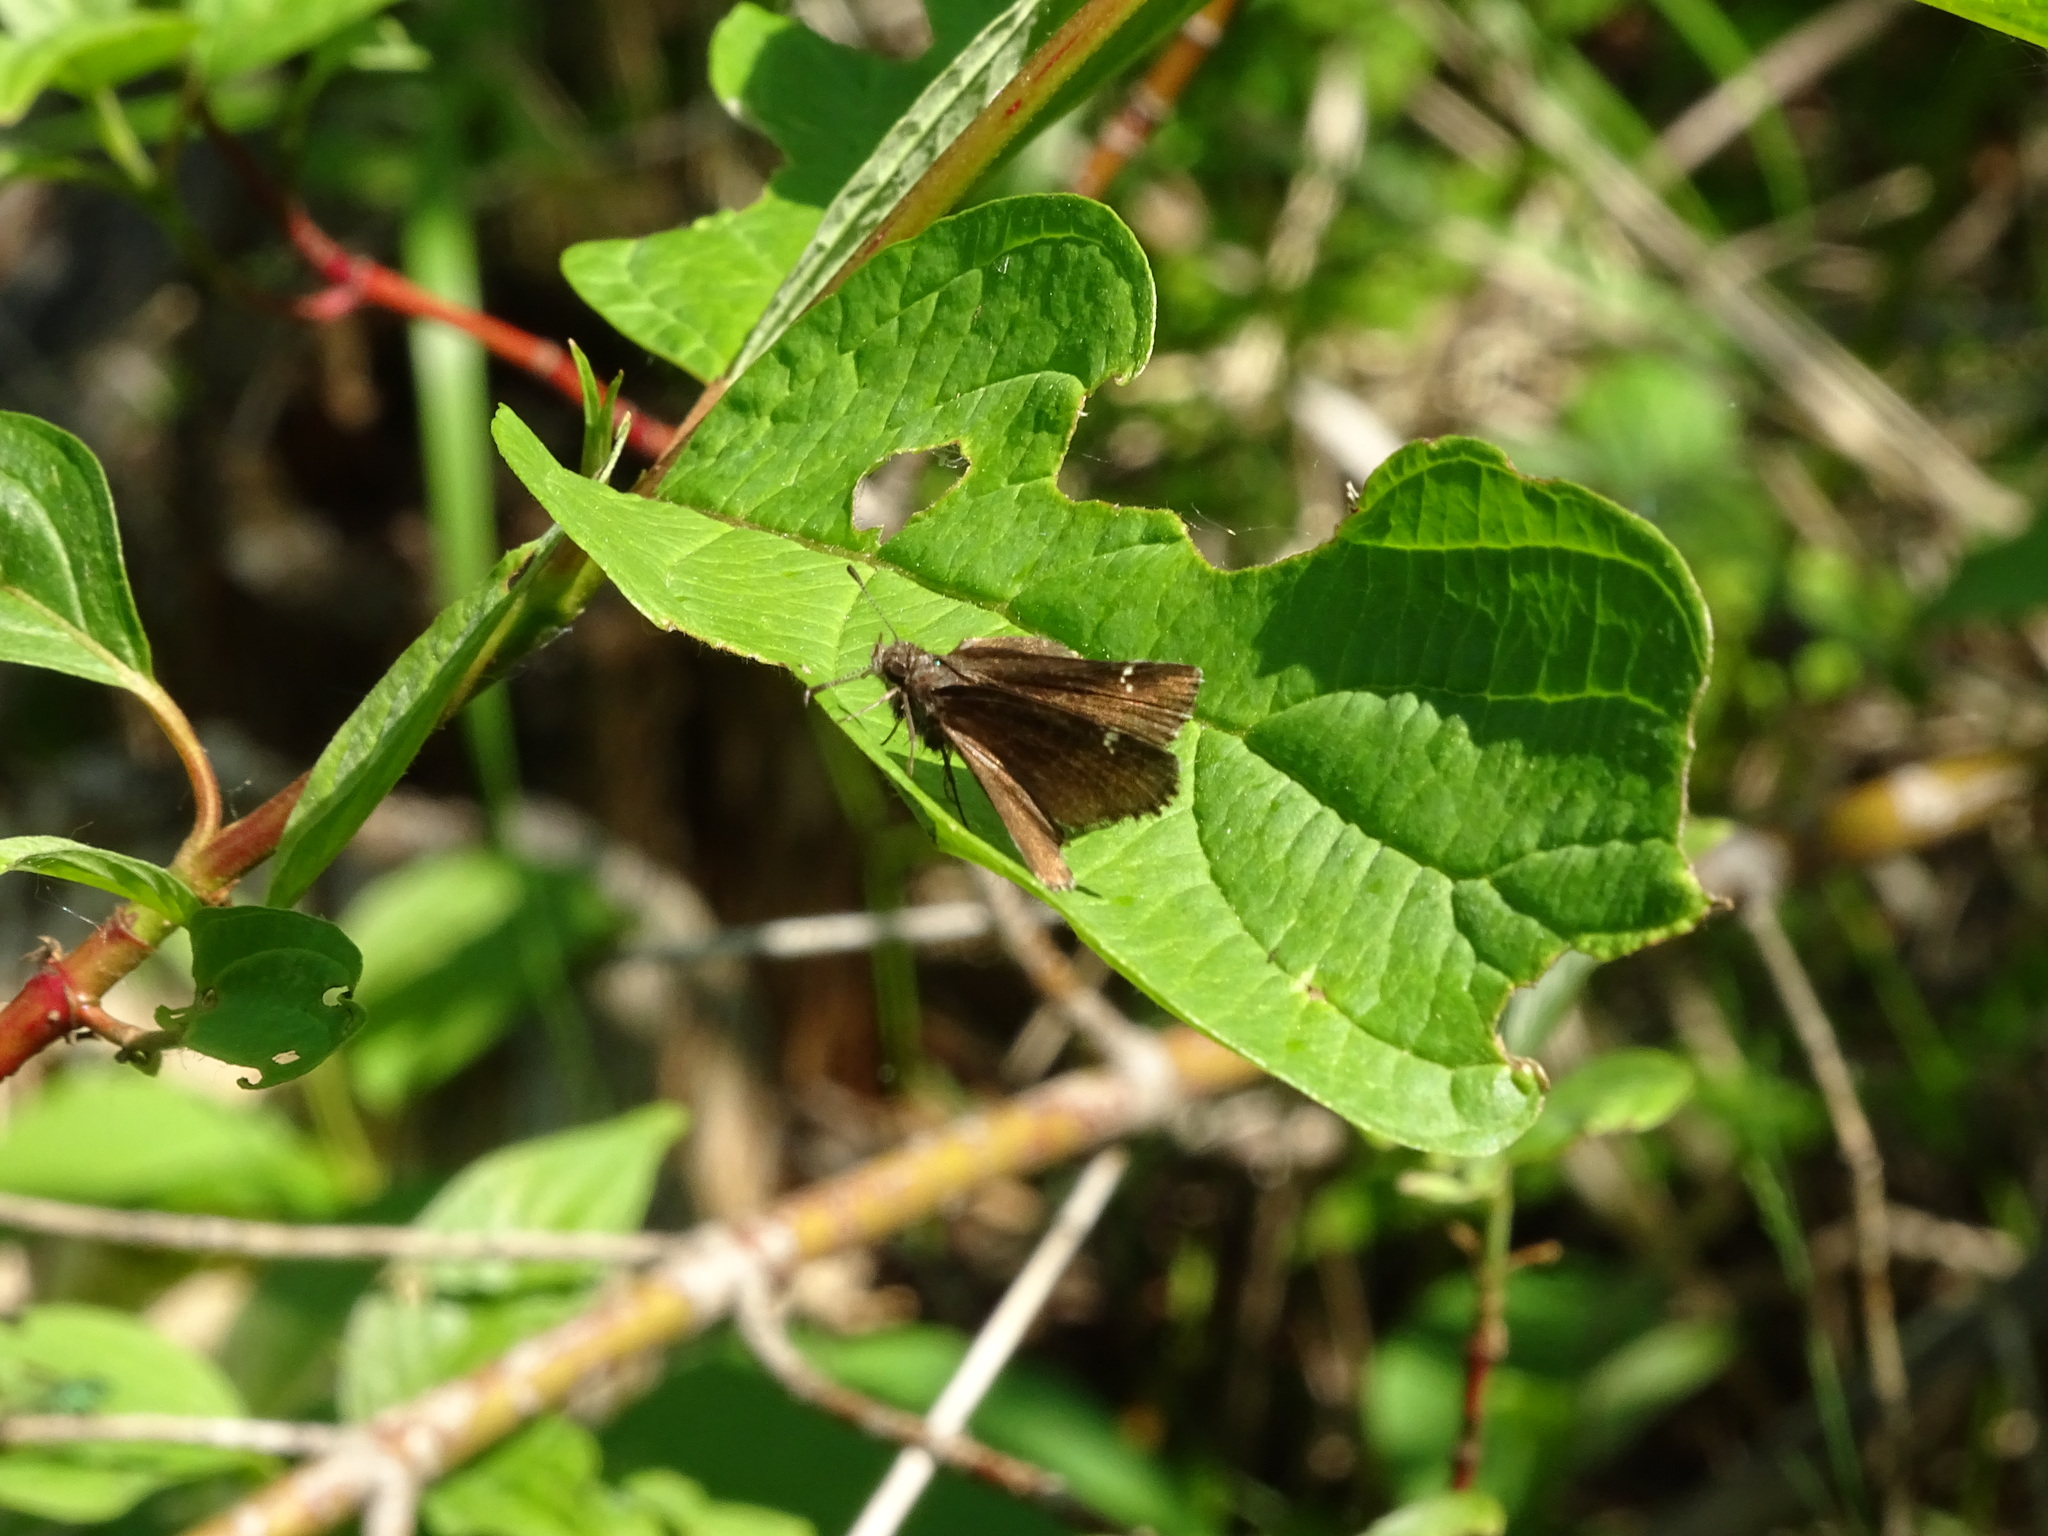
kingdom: Animalia
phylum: Arthropoda
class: Insecta
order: Lepidoptera
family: Hesperiidae
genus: Mastor
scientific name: Mastor vialis
